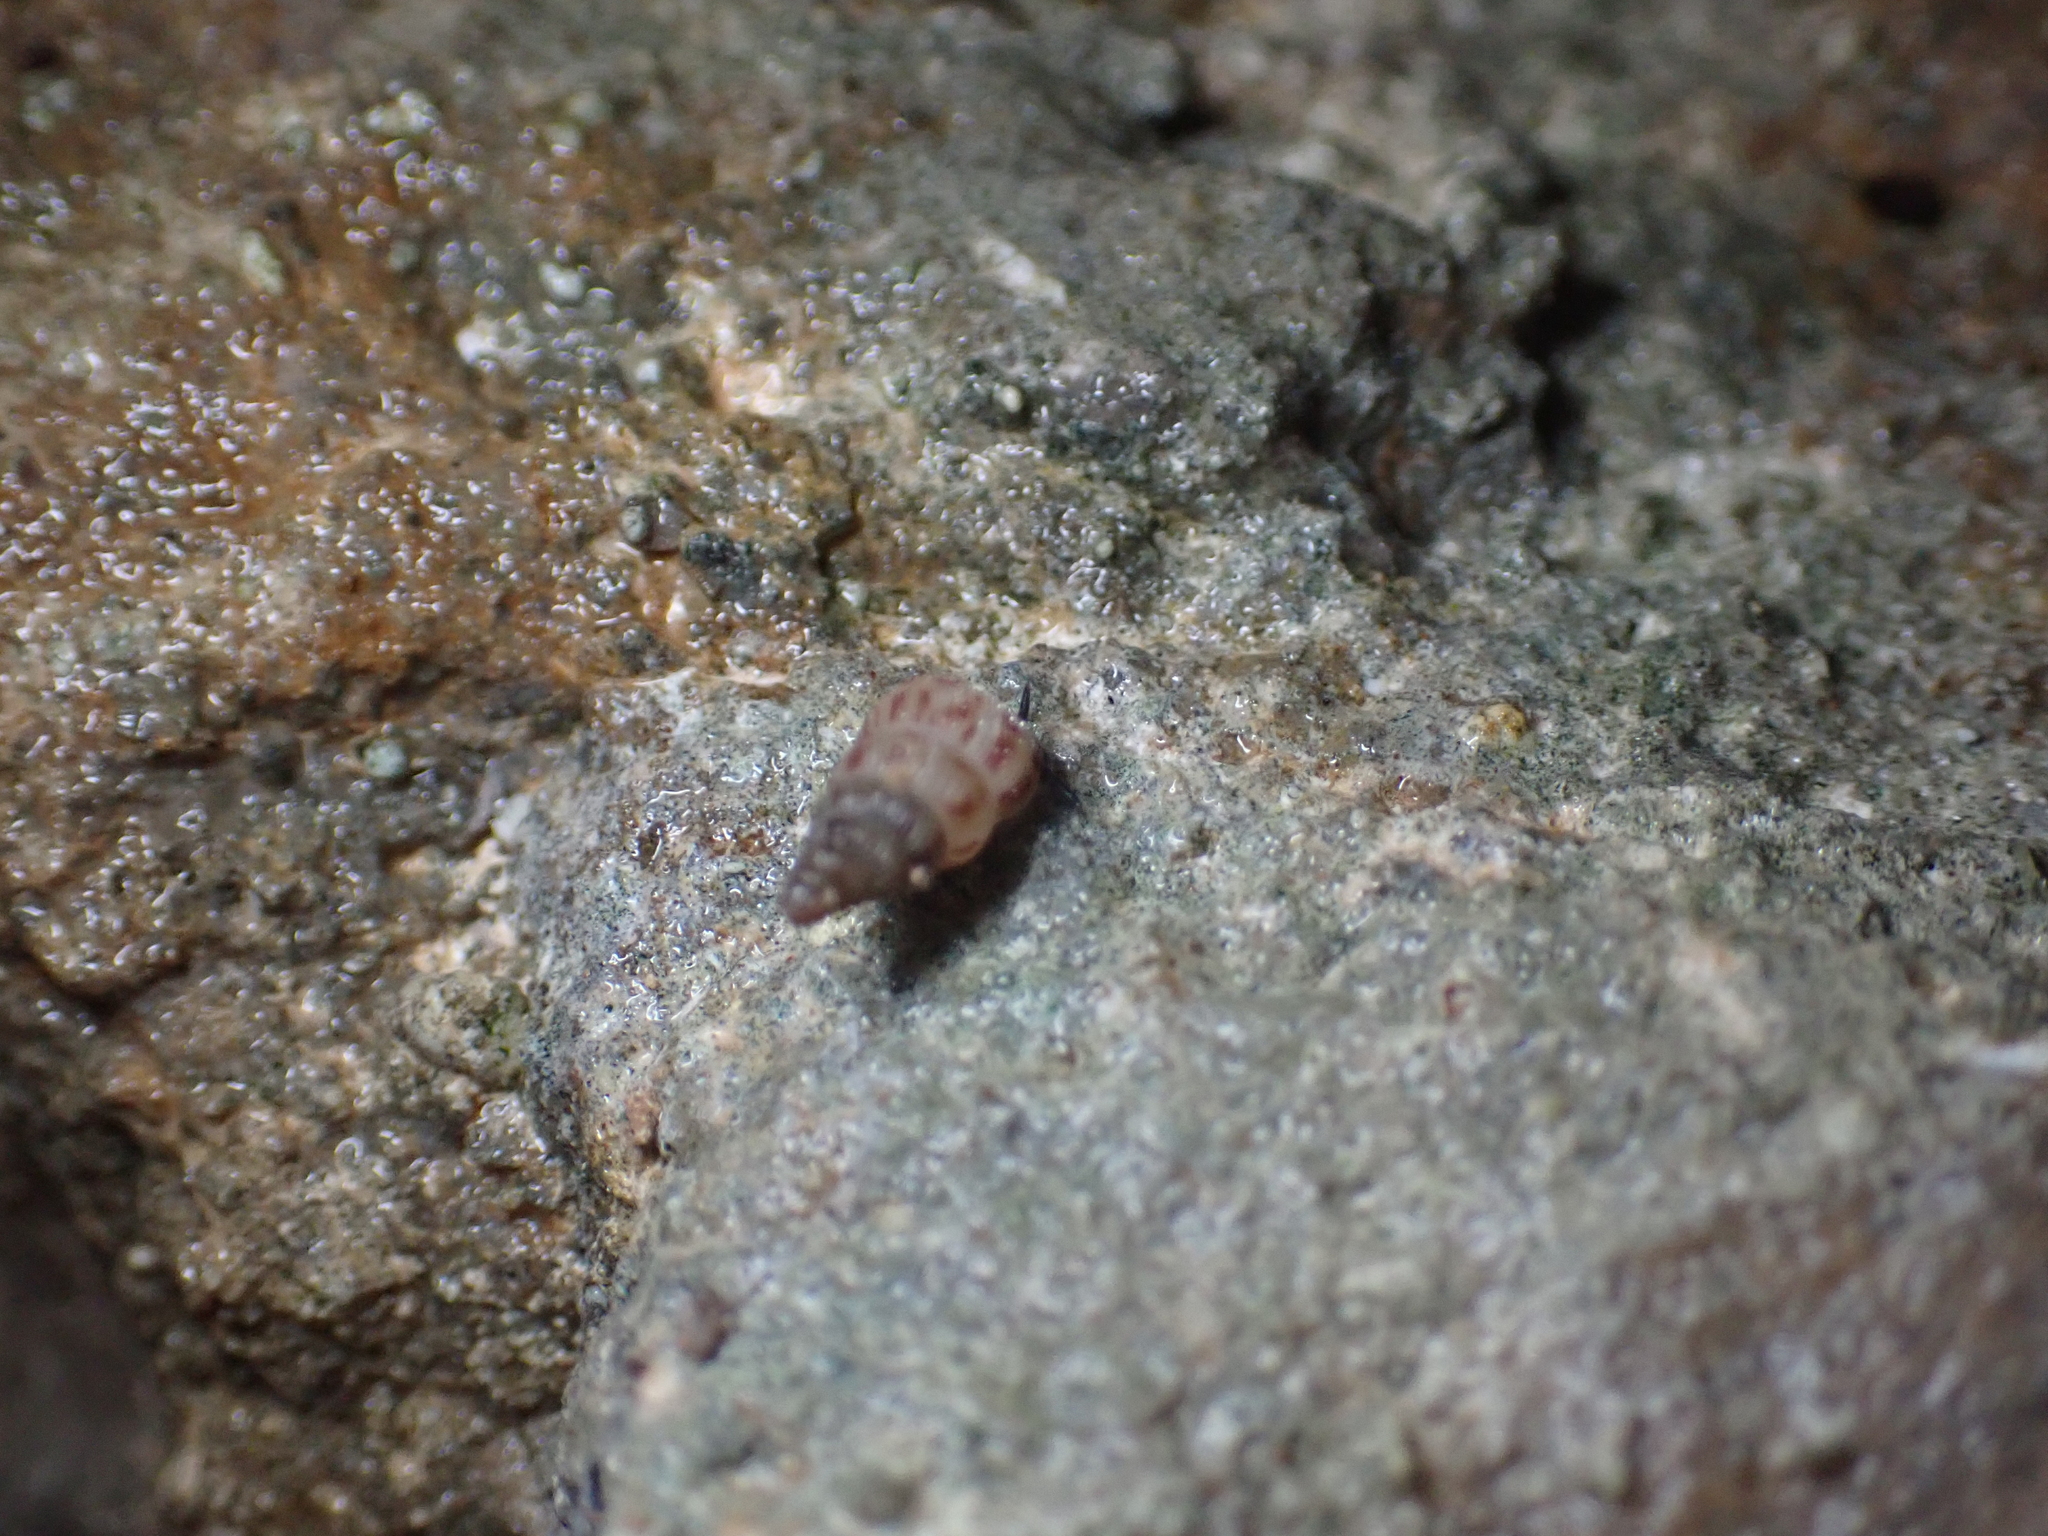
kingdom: Animalia
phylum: Mollusca
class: Gastropoda
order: Architaenioglossa
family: Cochlostomatidae
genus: Cochlostoma
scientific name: Cochlostoma septemspirale
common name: Seven-whorl snail
